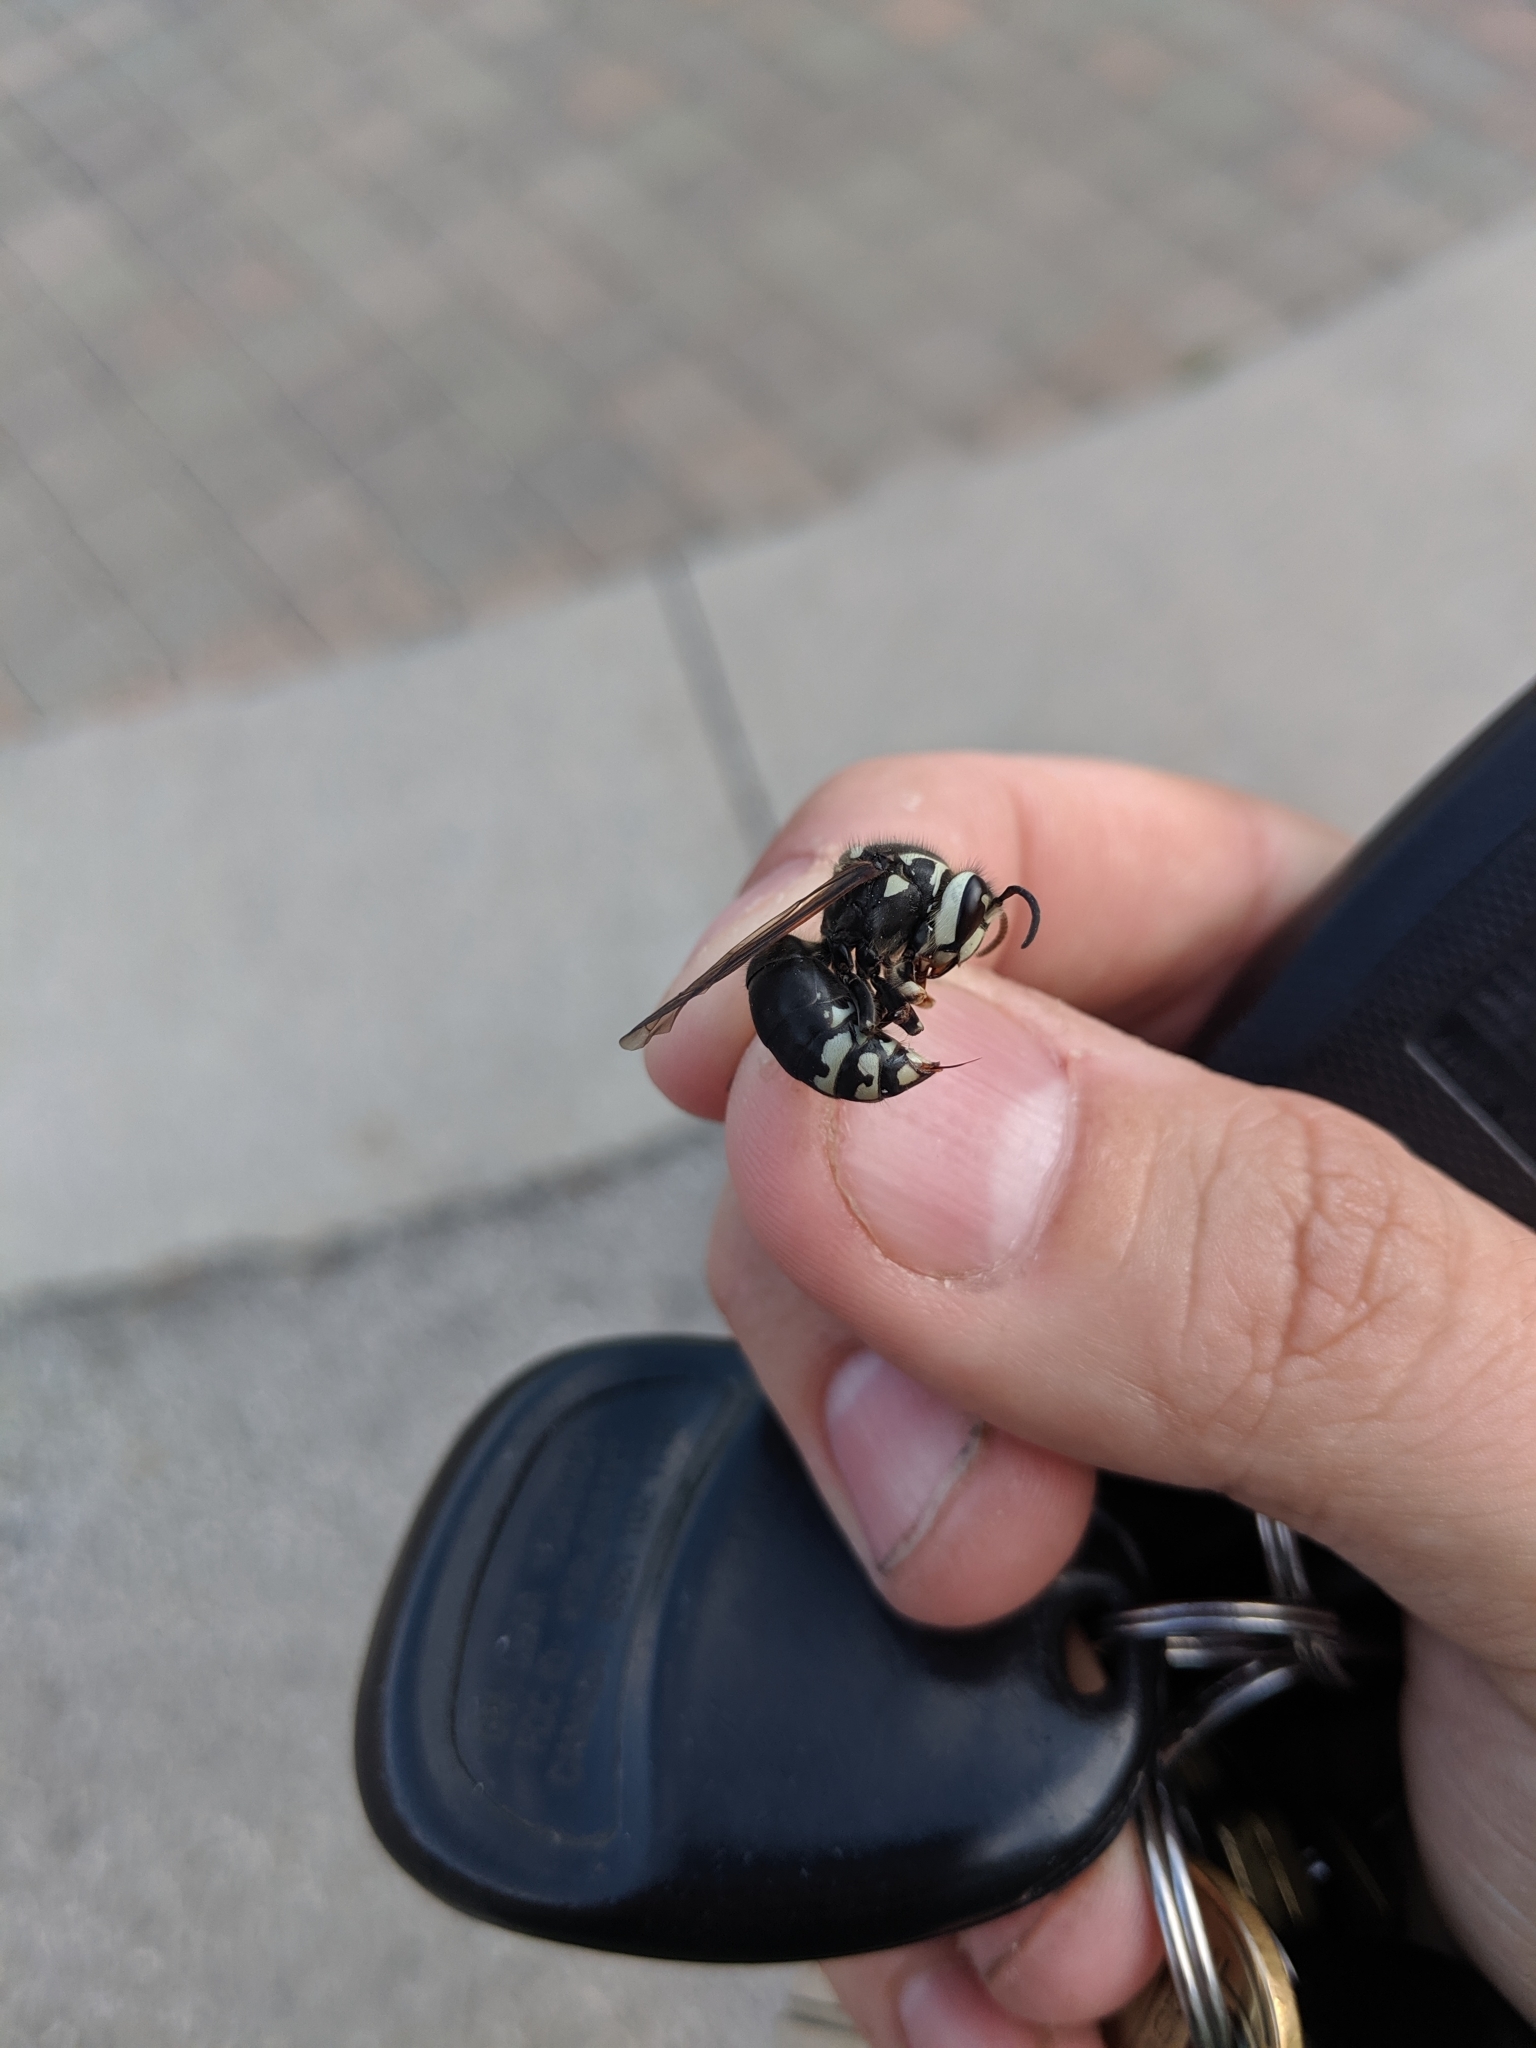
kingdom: Animalia
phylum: Arthropoda
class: Insecta
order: Hymenoptera
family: Vespidae
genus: Dolichovespula
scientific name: Dolichovespula maculata
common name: Bald-faced hornet
